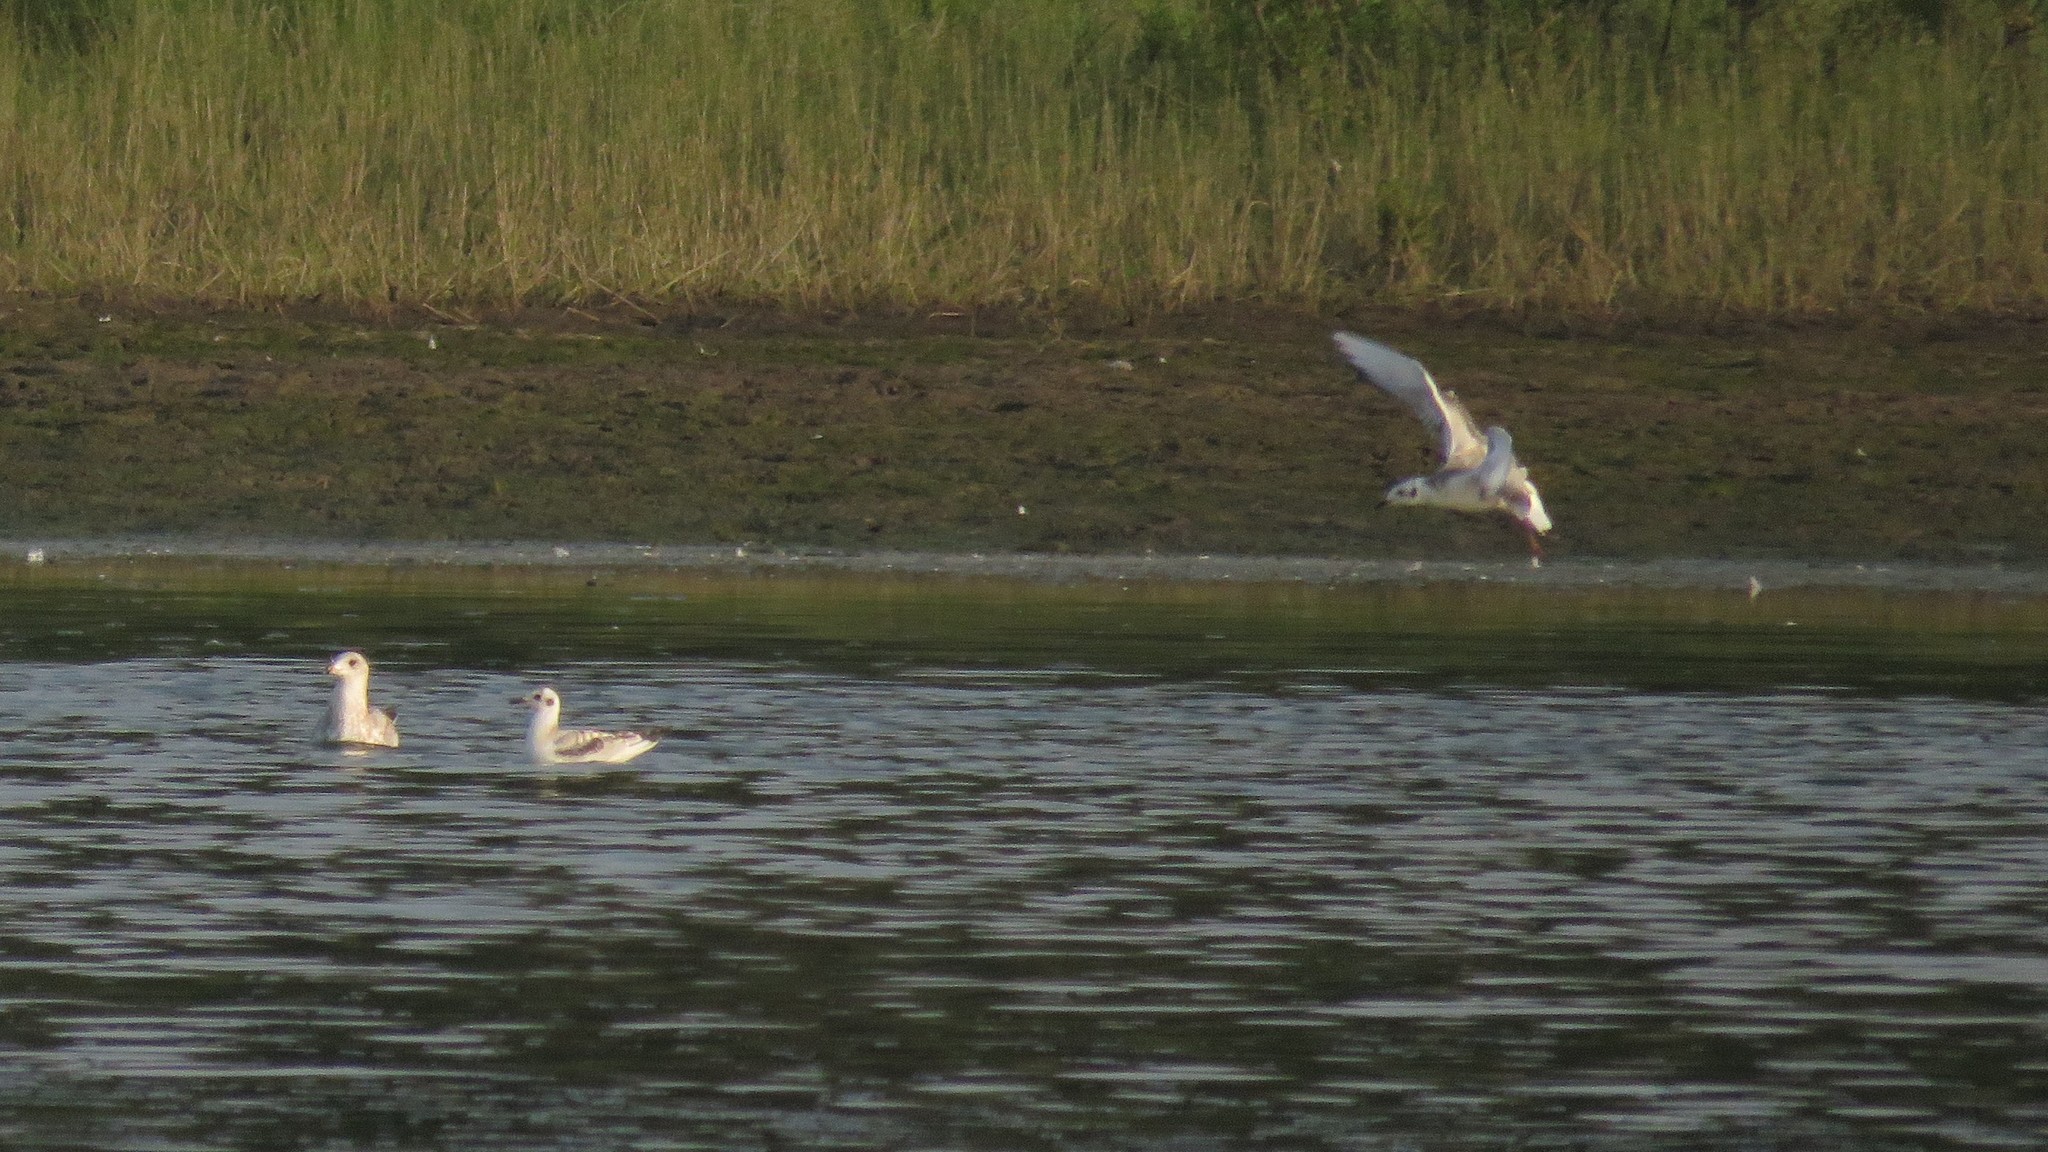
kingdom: Animalia
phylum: Chordata
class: Aves
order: Charadriiformes
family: Laridae
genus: Chroicocephalus
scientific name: Chroicocephalus philadelphia
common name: Bonaparte's gull
